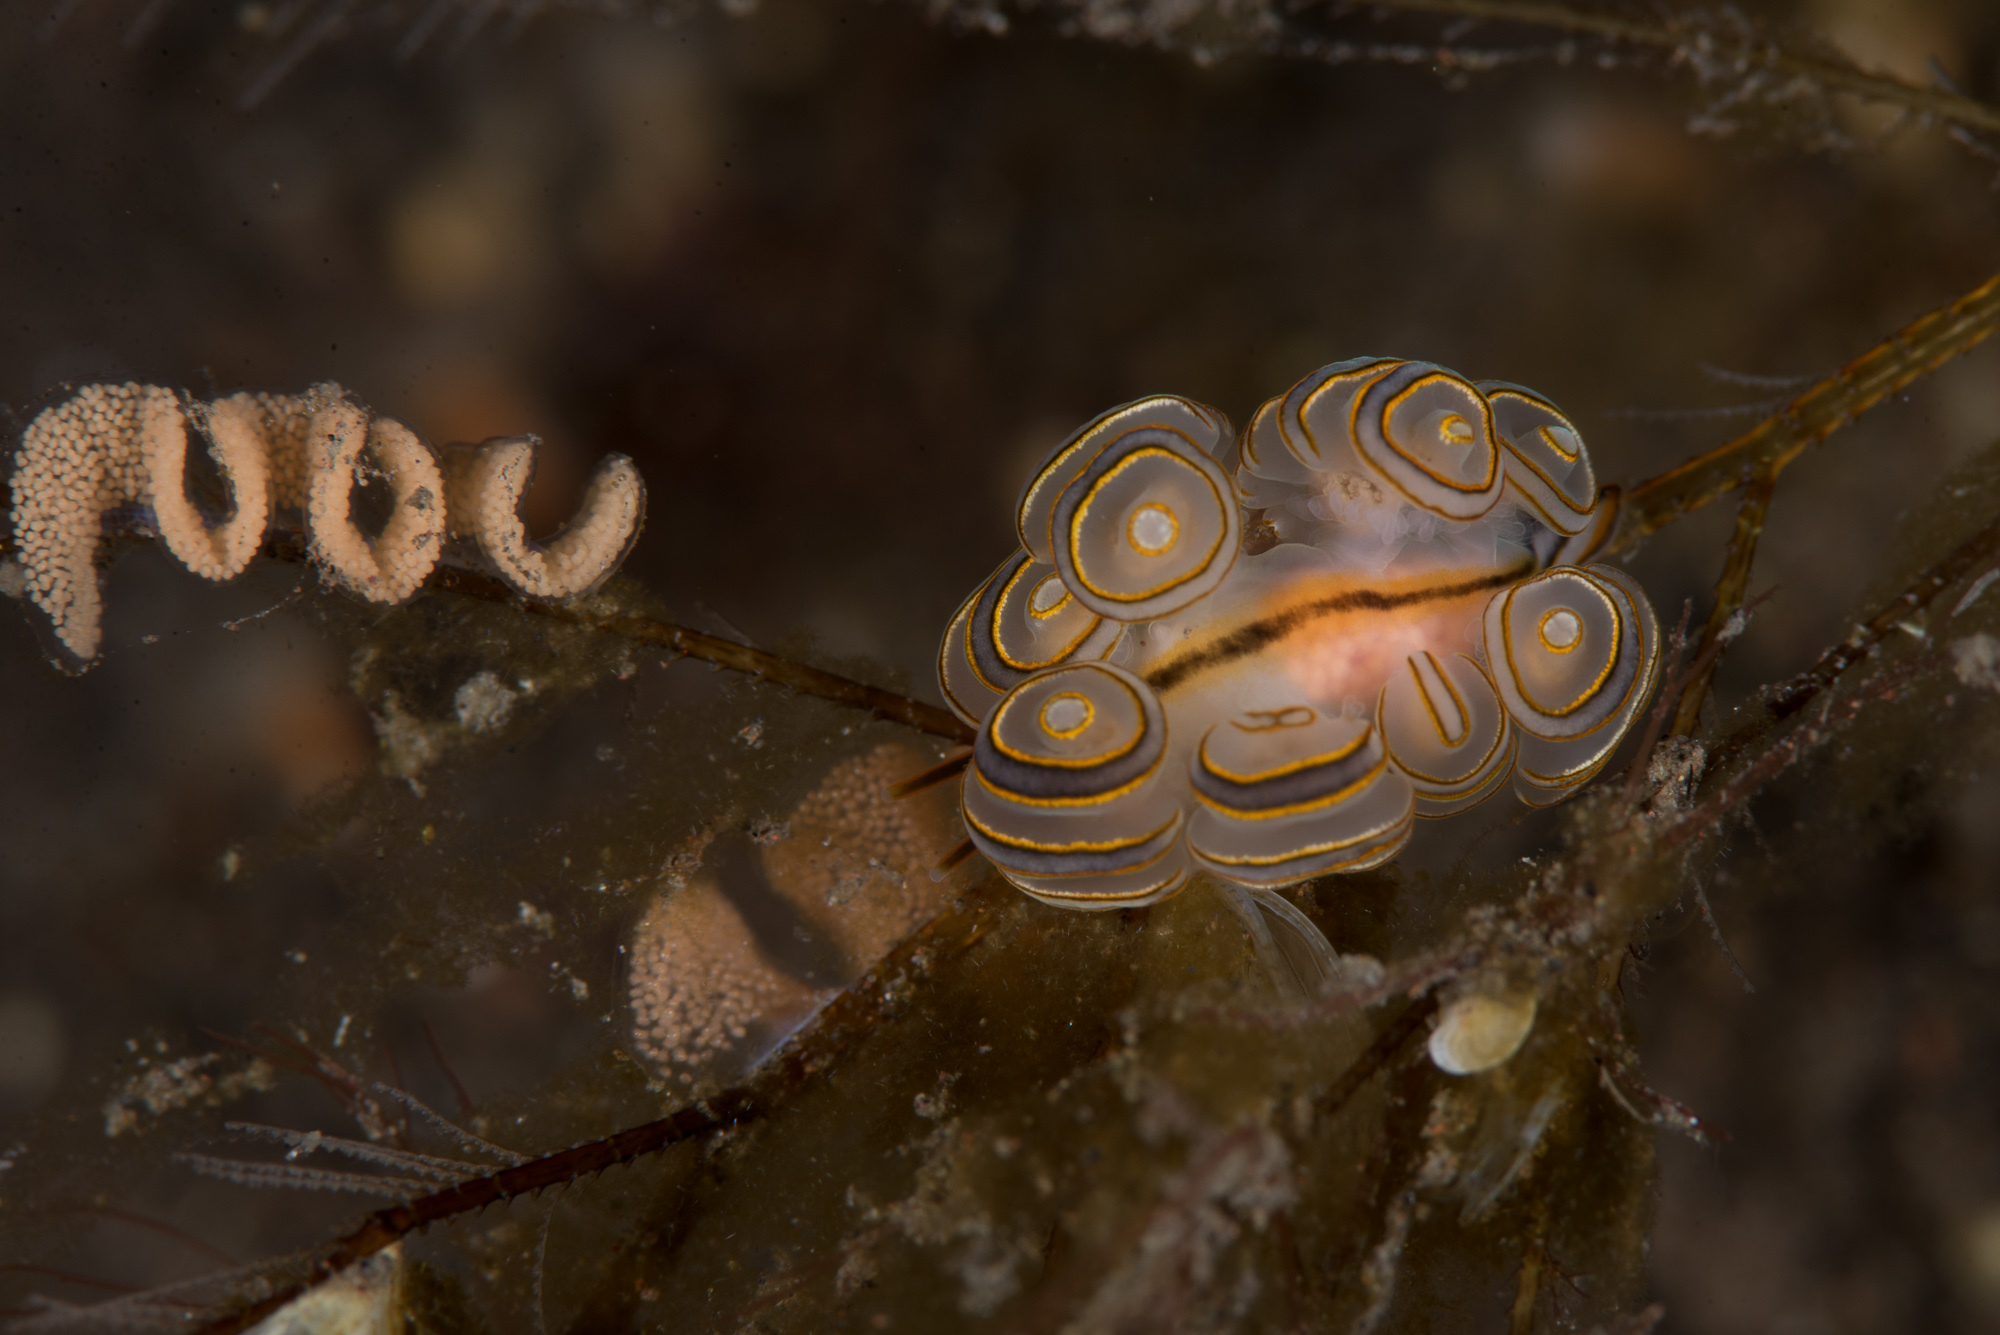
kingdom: Animalia
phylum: Mollusca
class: Gastropoda
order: Nudibranchia
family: Dotidae
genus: Doto
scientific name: Doto greenamyeri
